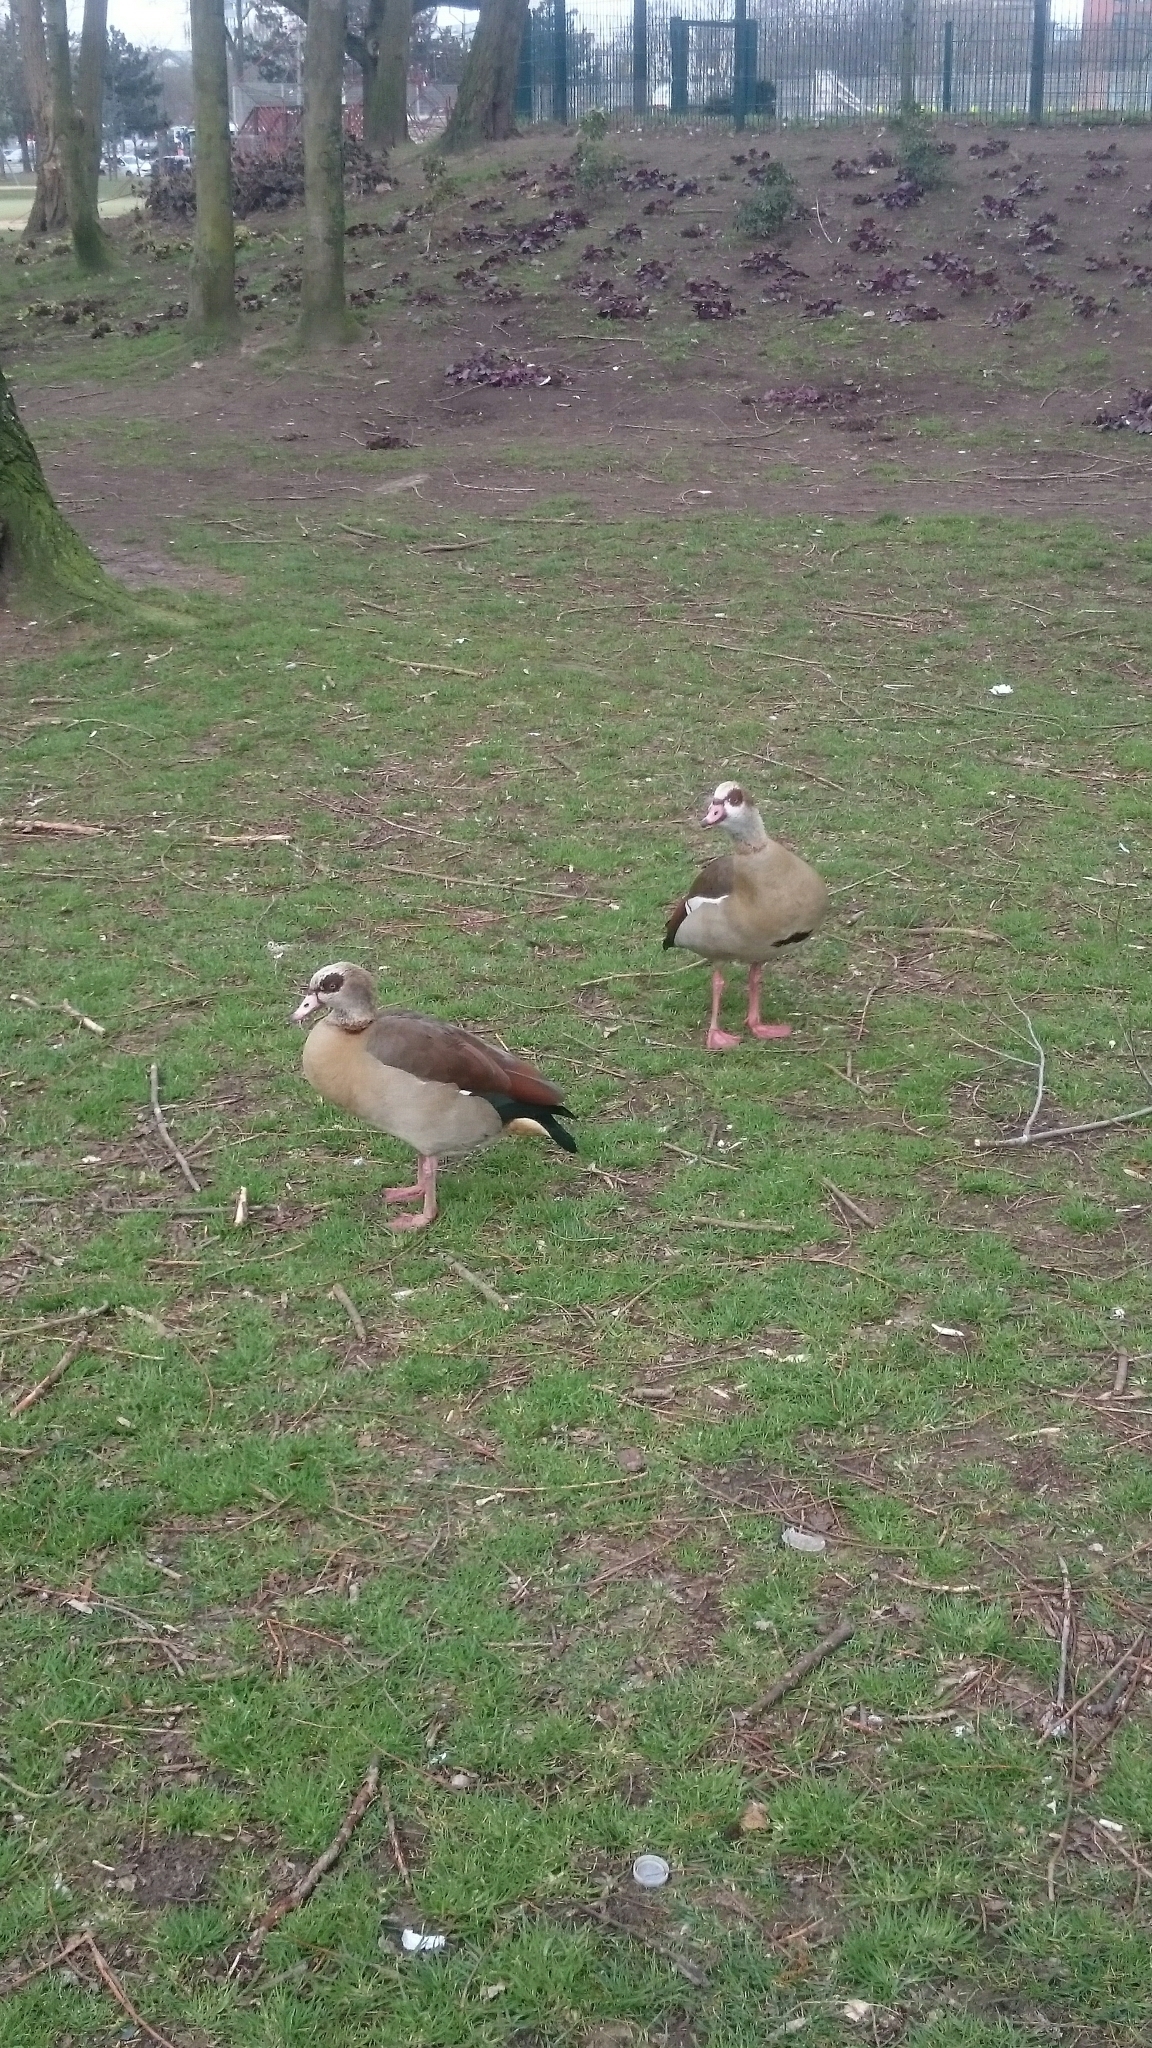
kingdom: Animalia
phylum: Chordata
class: Aves
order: Anseriformes
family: Anatidae
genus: Alopochen
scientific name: Alopochen aegyptiaca
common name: Egyptian goose
